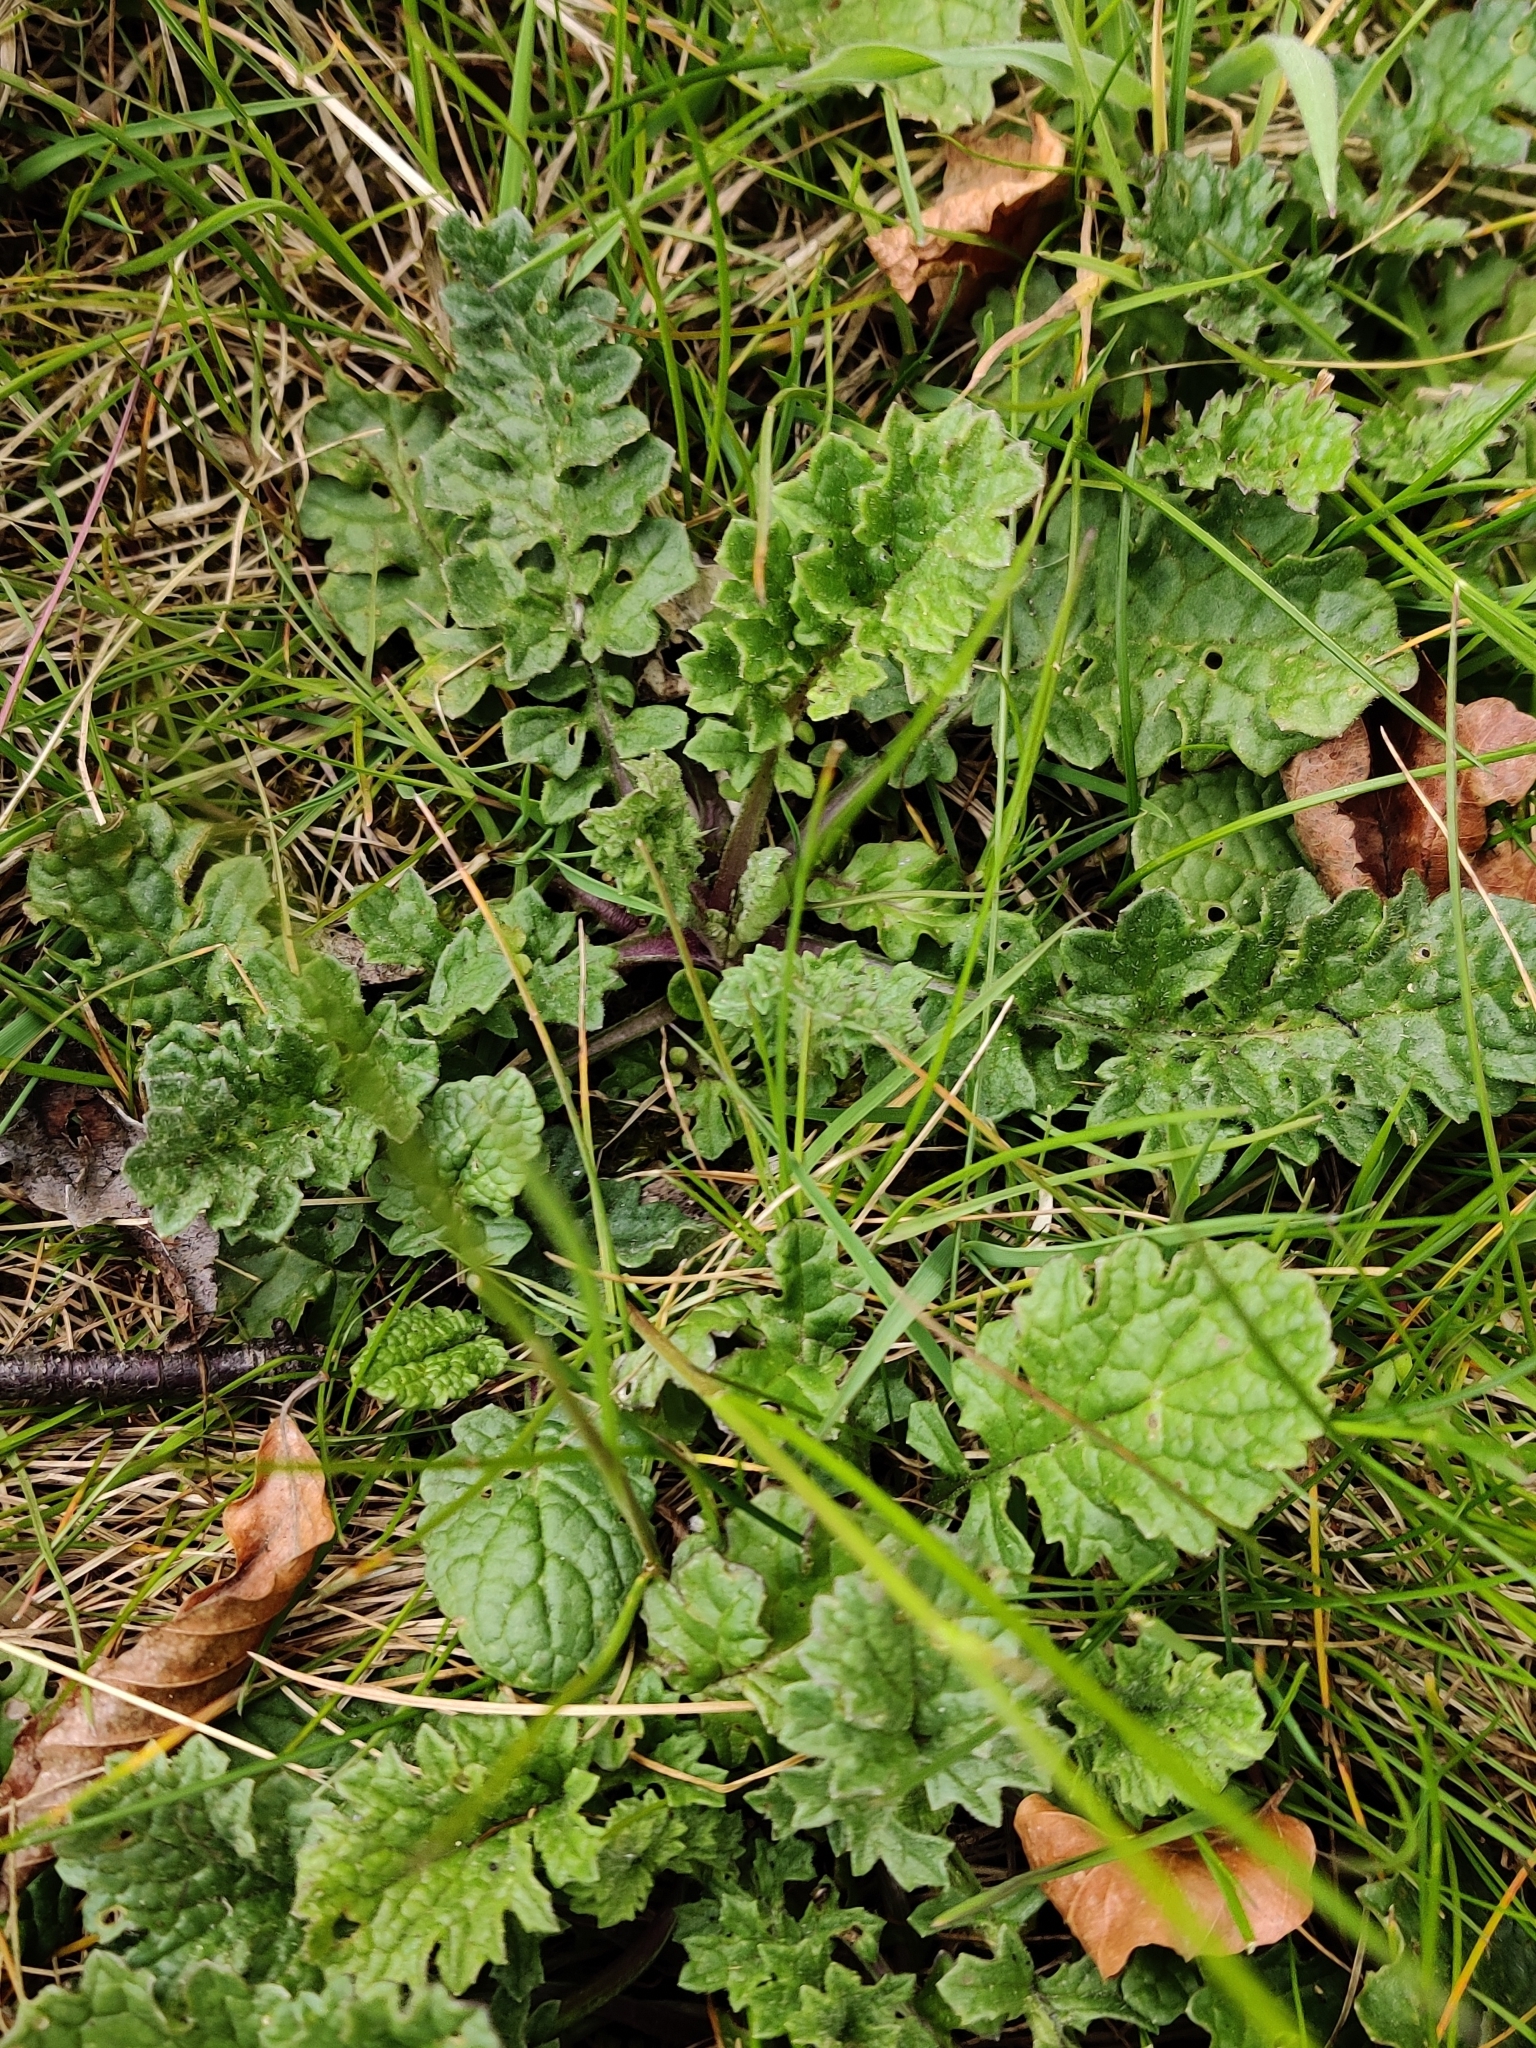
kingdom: Plantae
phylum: Tracheophyta
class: Magnoliopsida
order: Asterales
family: Asteraceae
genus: Jacobaea
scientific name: Jacobaea vulgaris
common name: Stinking willie
